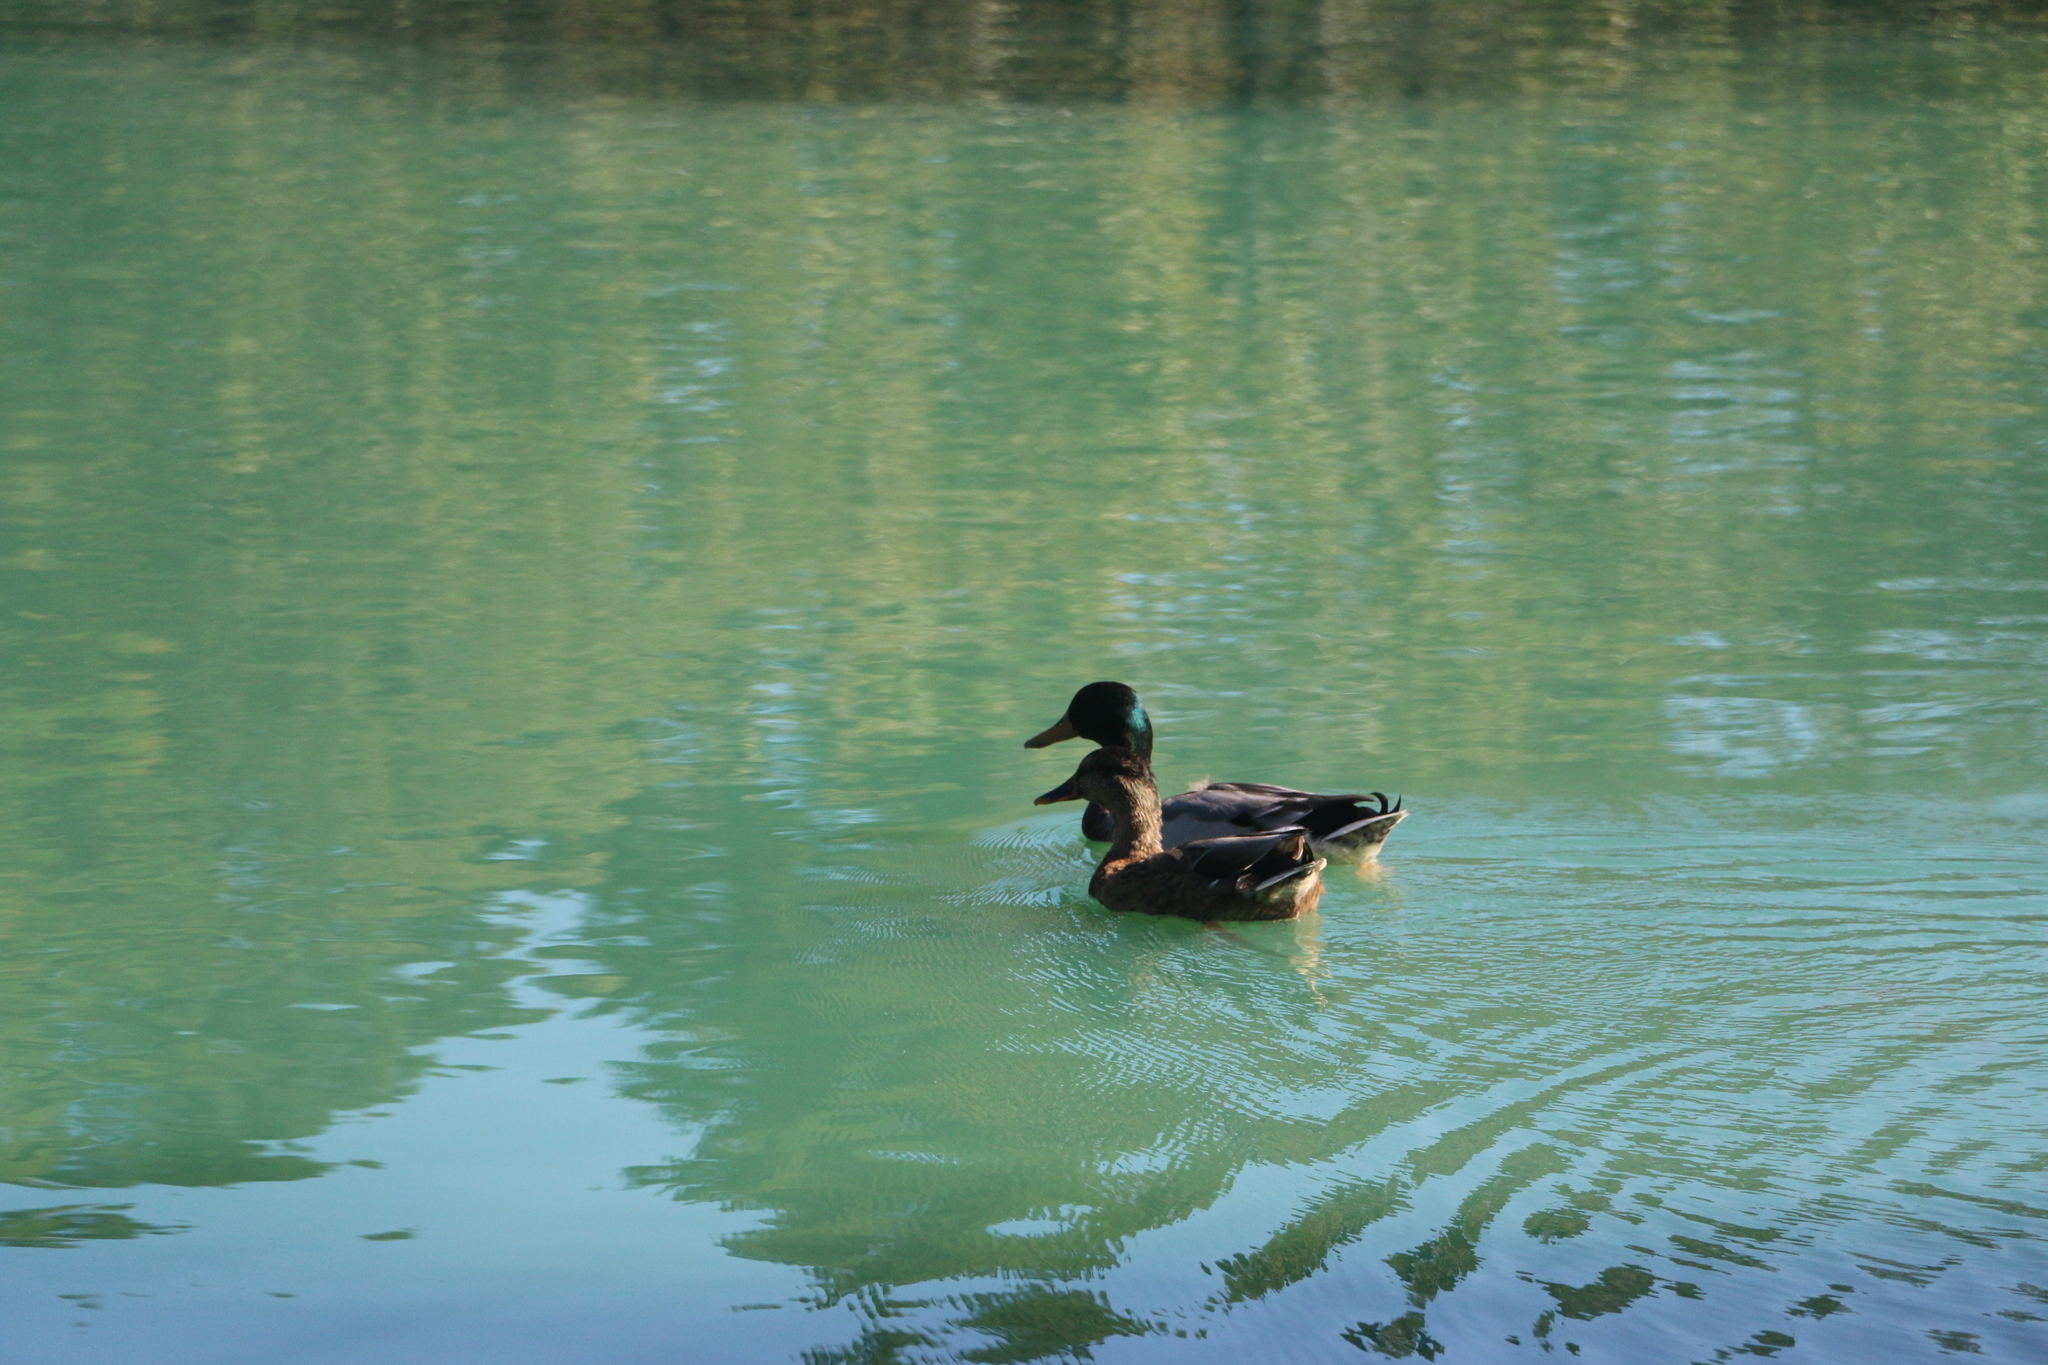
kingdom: Animalia
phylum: Chordata
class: Aves
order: Anseriformes
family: Anatidae
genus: Anas
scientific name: Anas platyrhynchos
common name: Mallard
